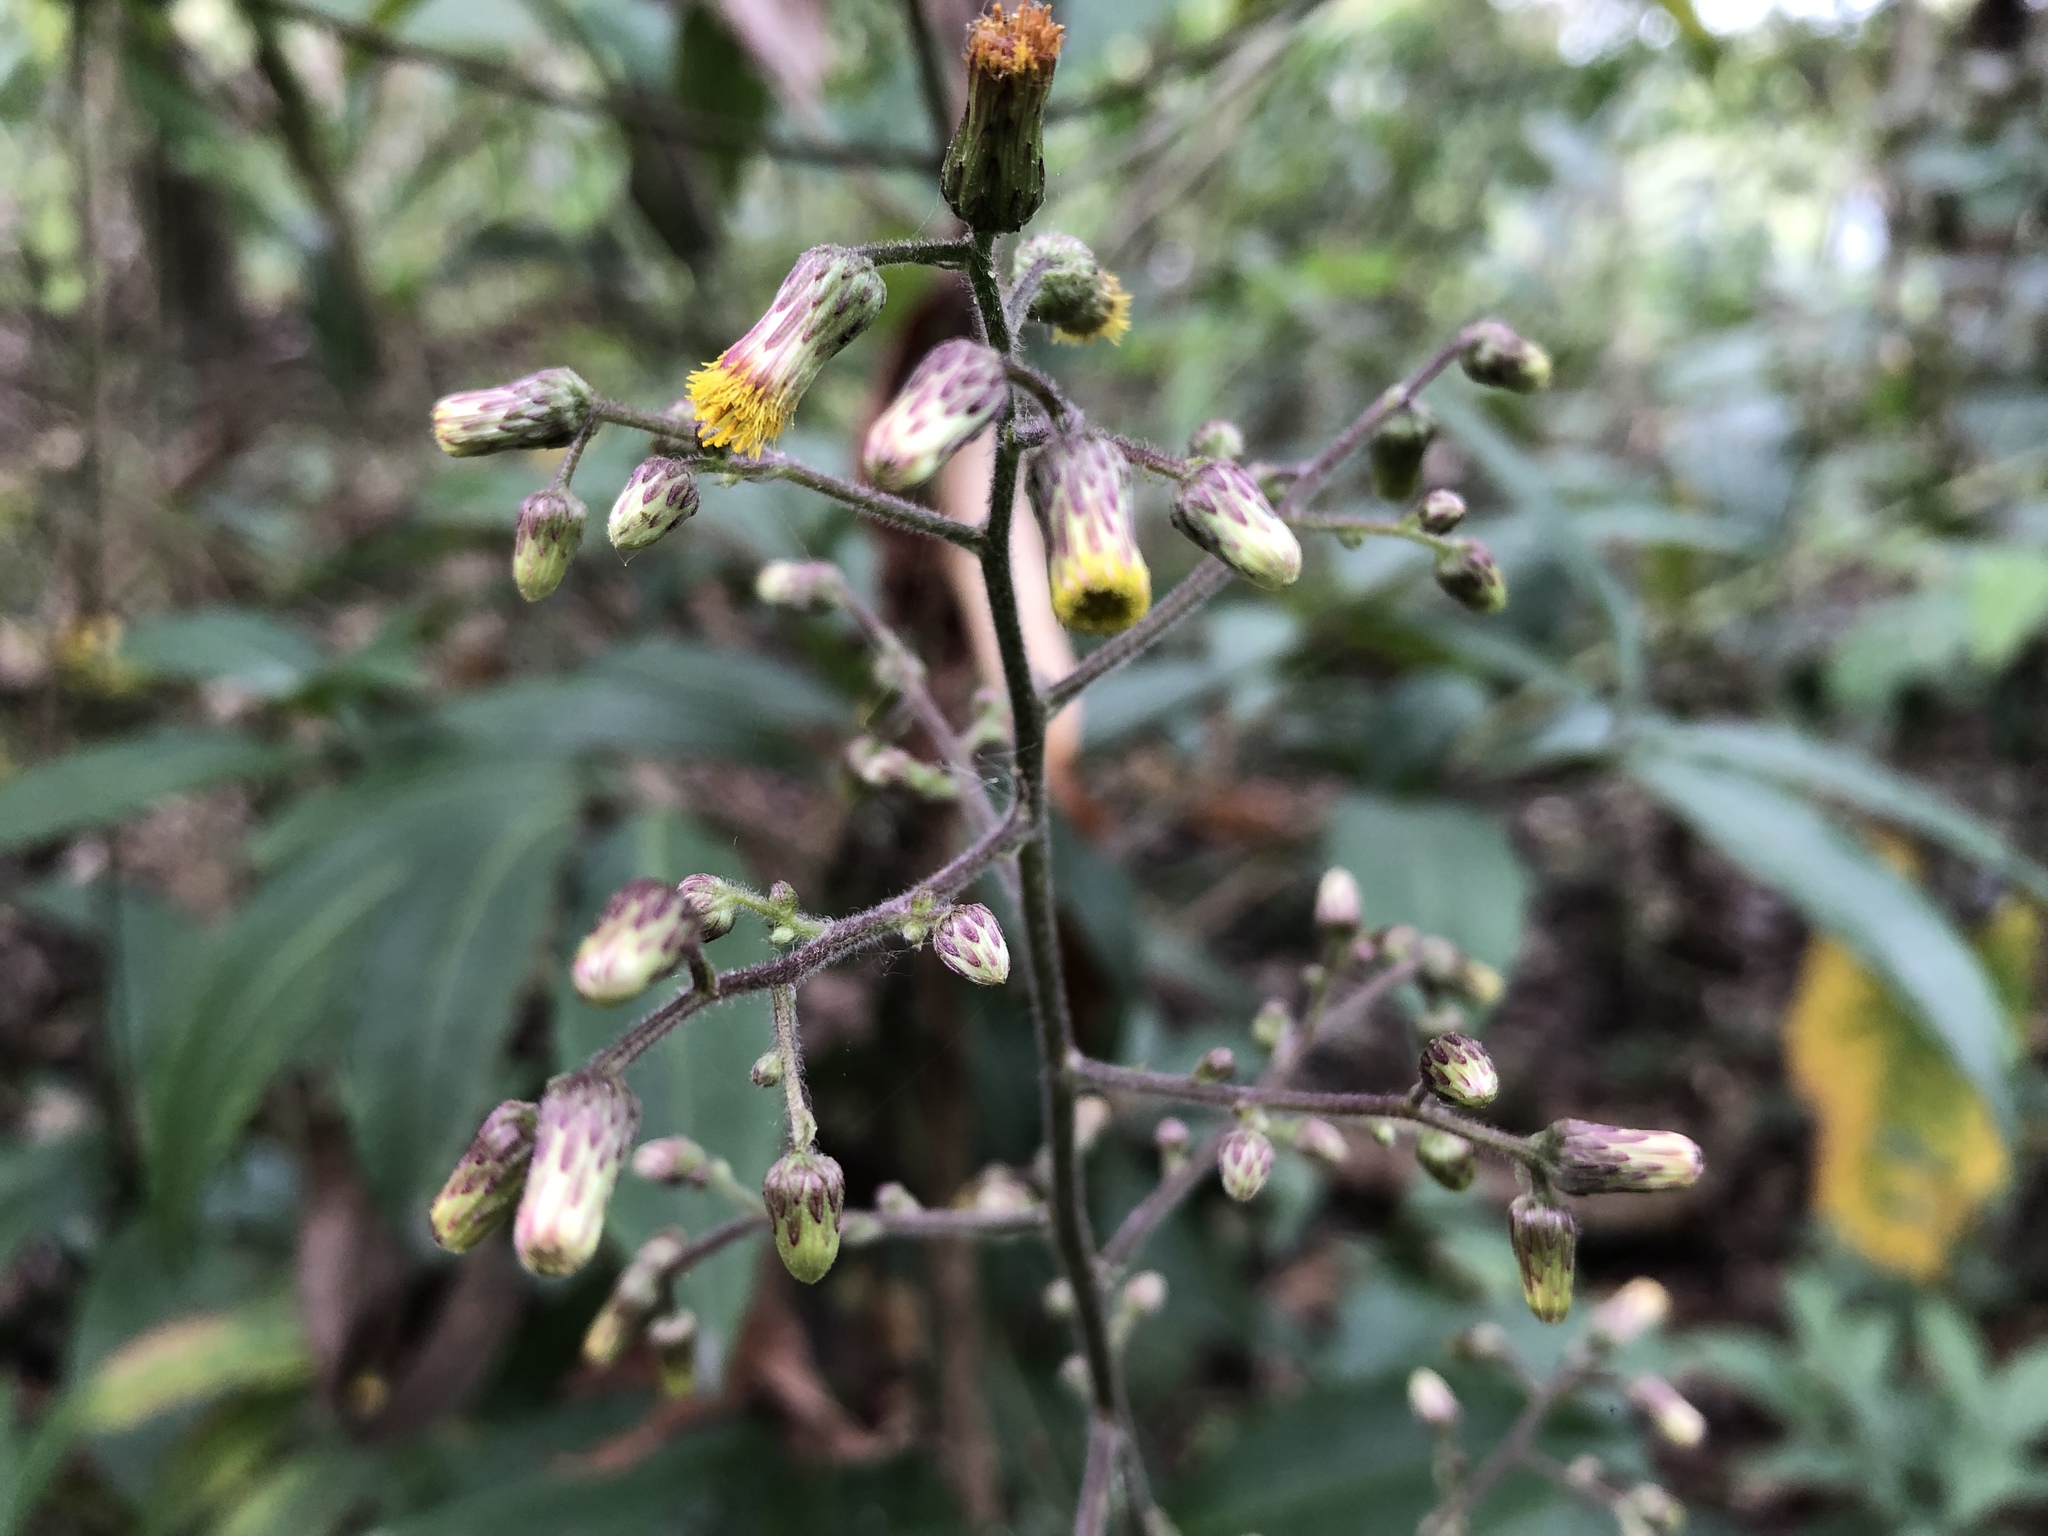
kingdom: Plantae
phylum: Tracheophyta
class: Magnoliopsida
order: Asterales
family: Asteraceae
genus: Blumea
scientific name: Blumea lanceolaria
